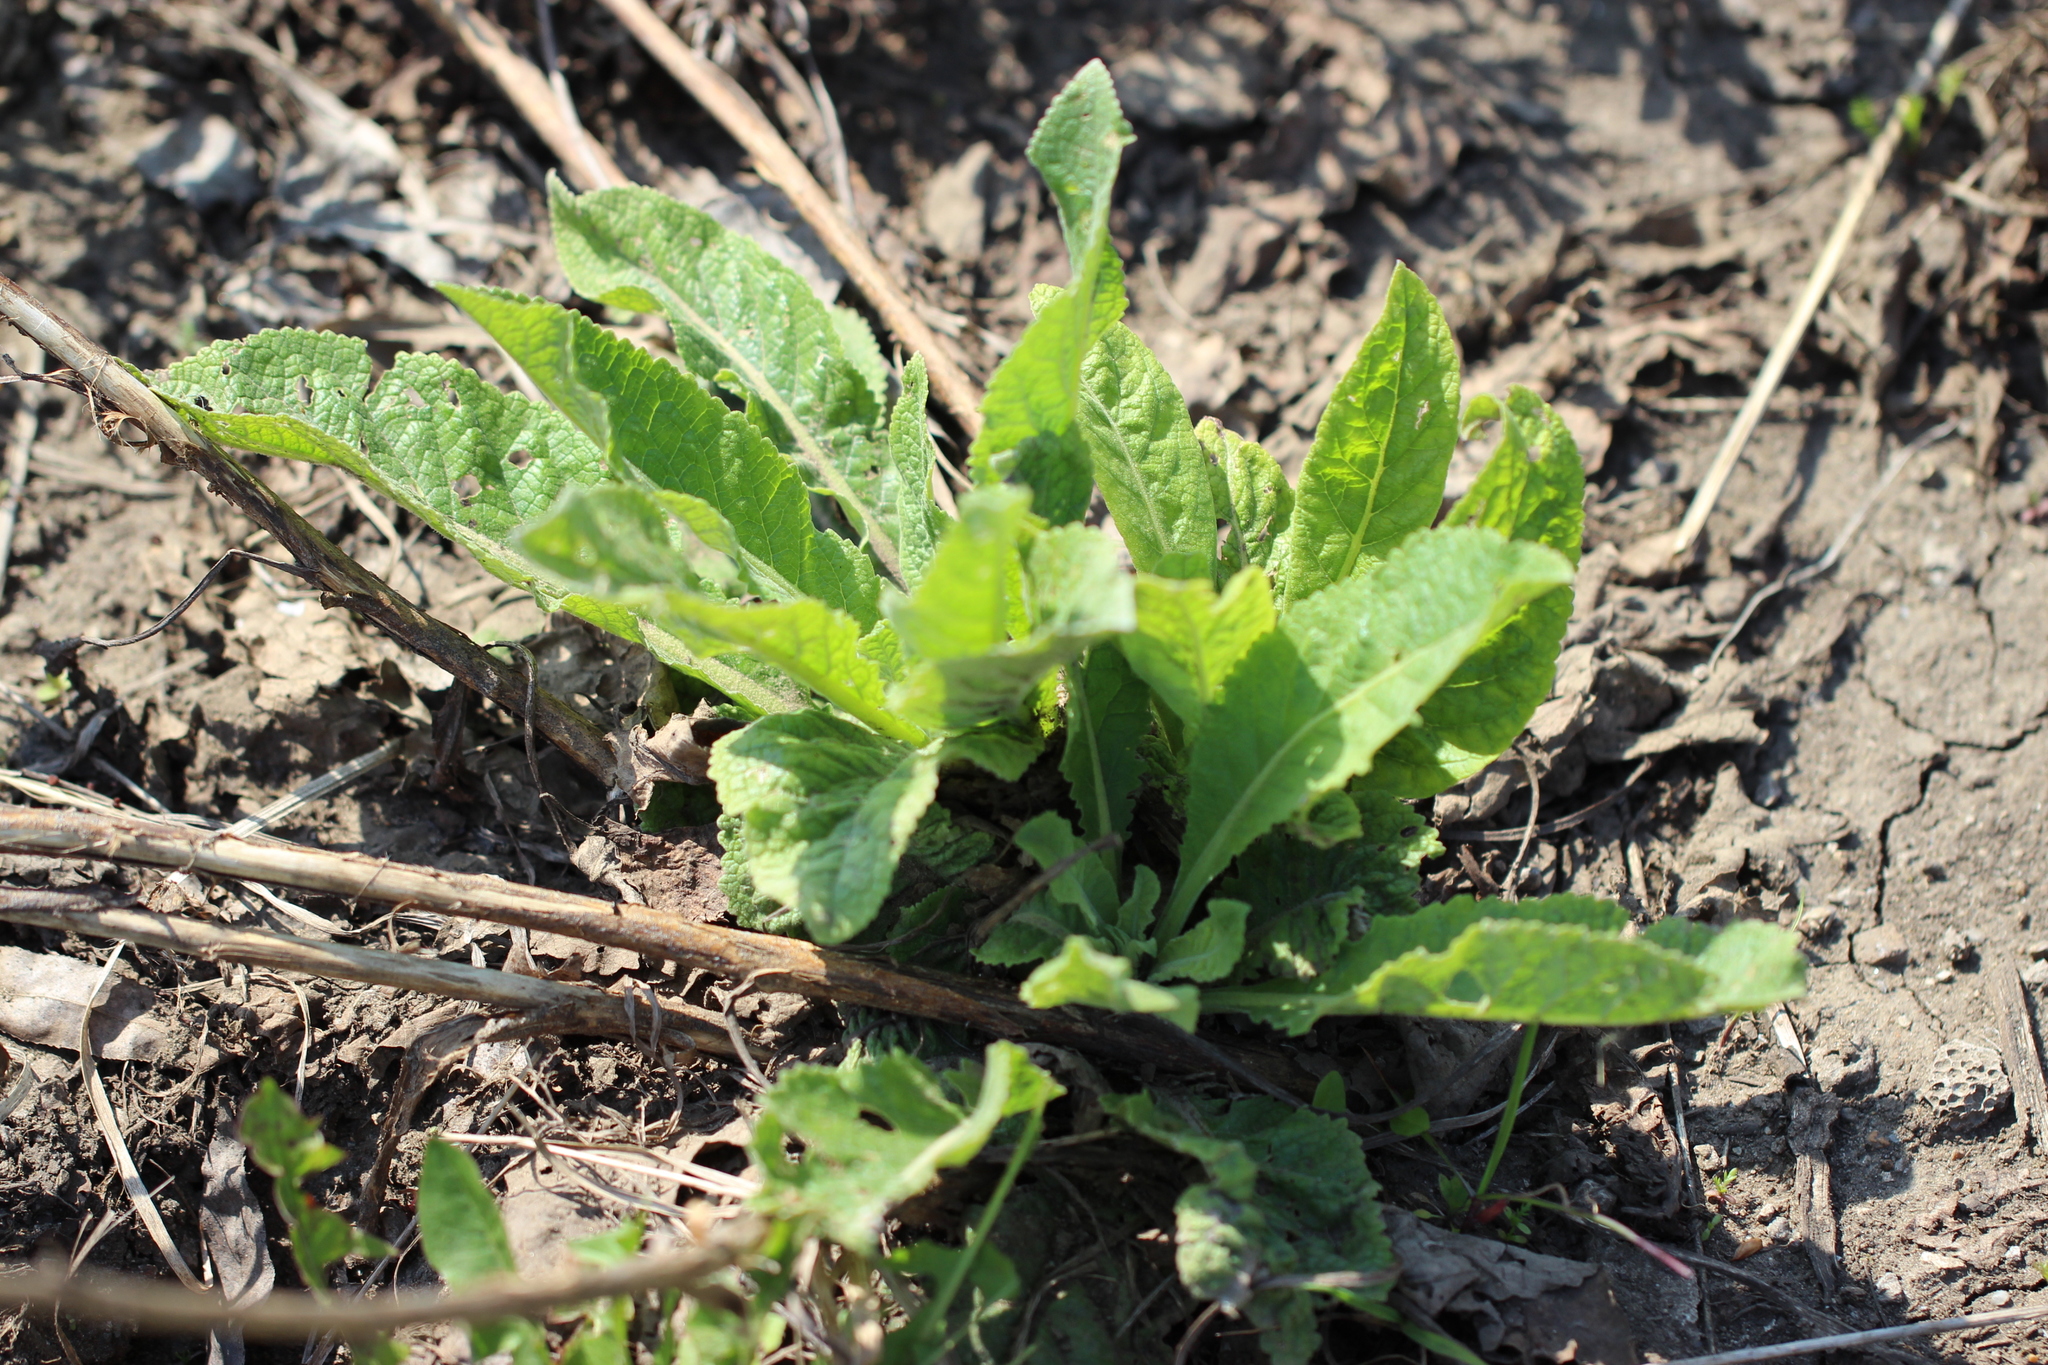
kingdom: Plantae
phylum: Tracheophyta
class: Magnoliopsida
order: Lamiales
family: Scrophulariaceae
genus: Verbascum
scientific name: Verbascum lychnitis
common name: White mullein
